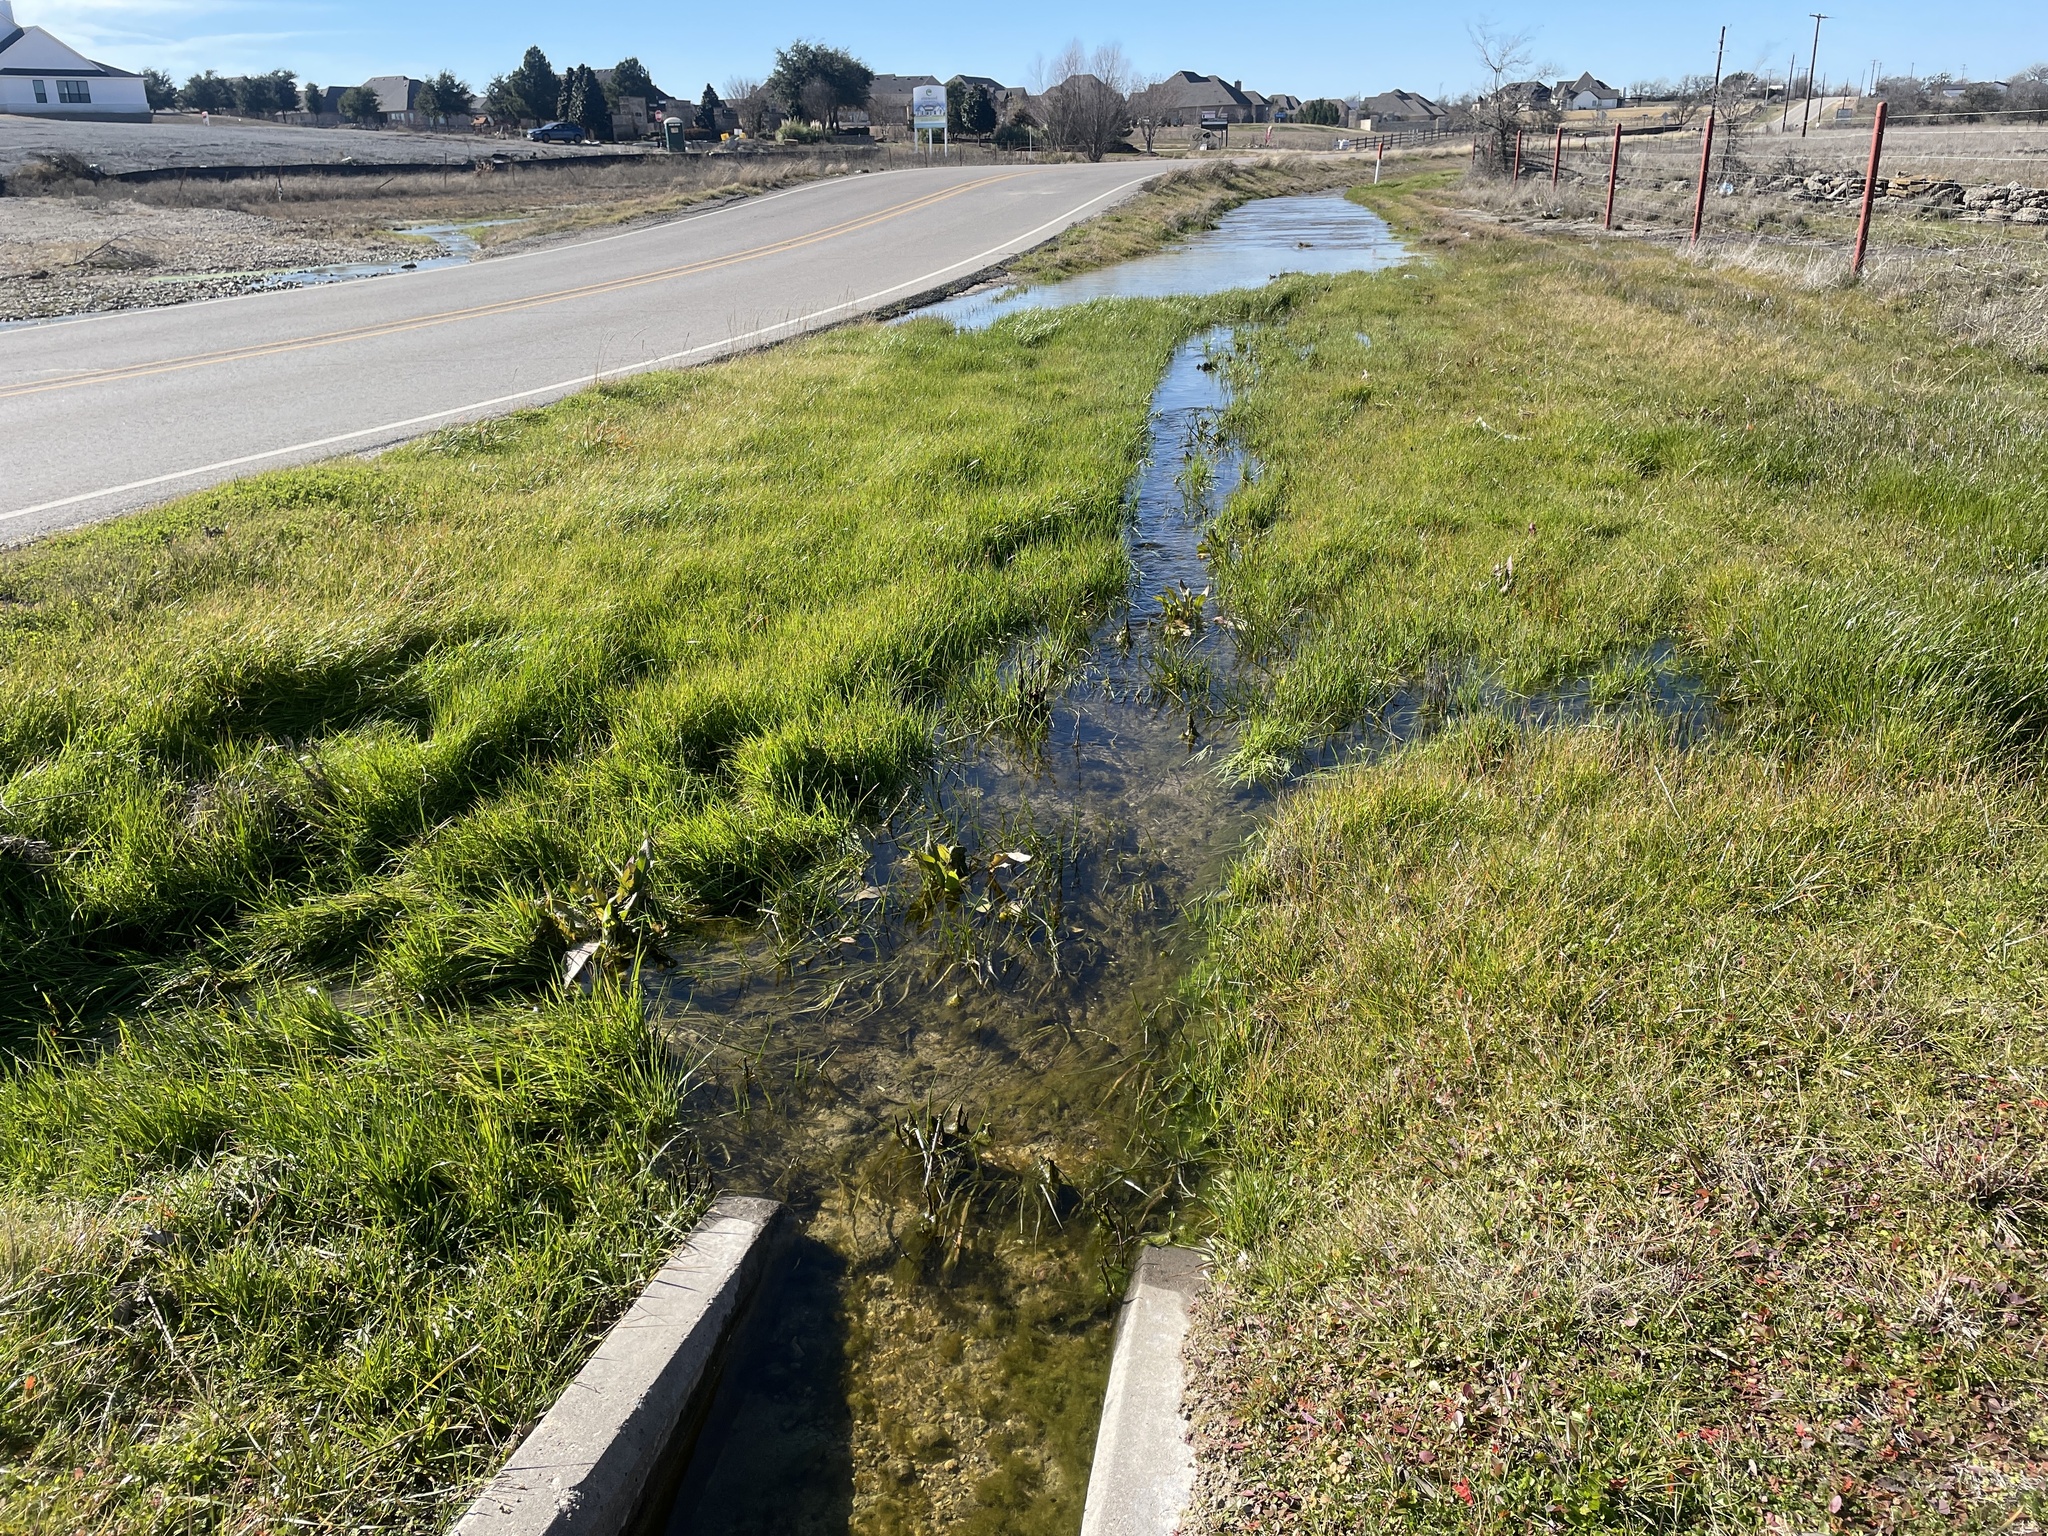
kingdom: Animalia
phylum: Chordata
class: Amphibia
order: Anura
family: Hylidae
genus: Pseudacris
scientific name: Pseudacris streckeri
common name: Strecker's chorus frog
